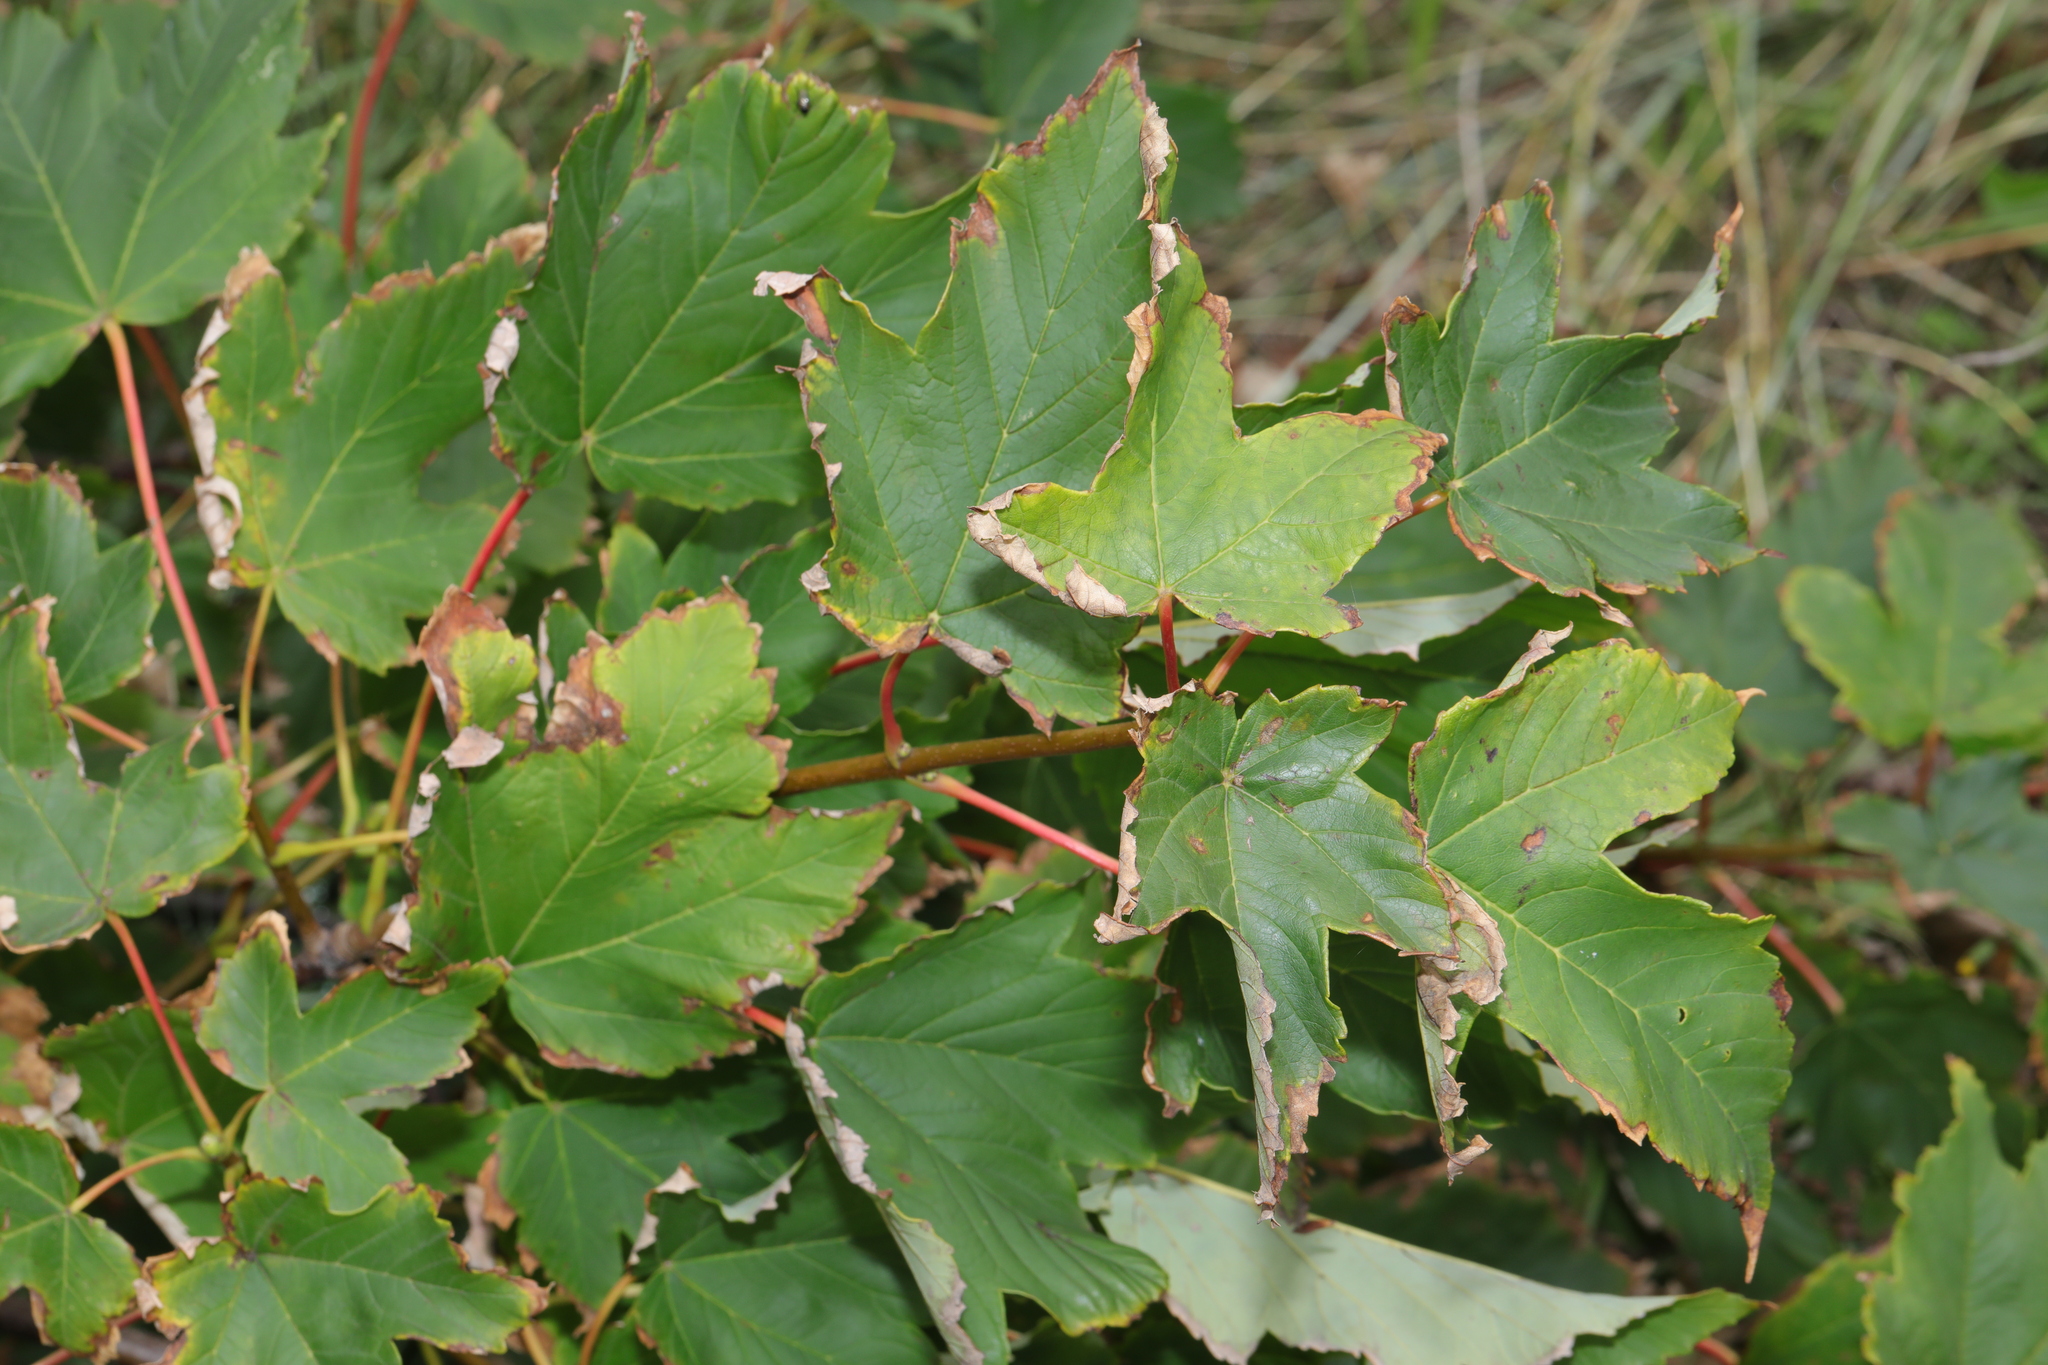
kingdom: Plantae
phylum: Tracheophyta
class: Magnoliopsida
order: Sapindales
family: Sapindaceae
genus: Acer
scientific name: Acer pseudoplatanus
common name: Sycamore
